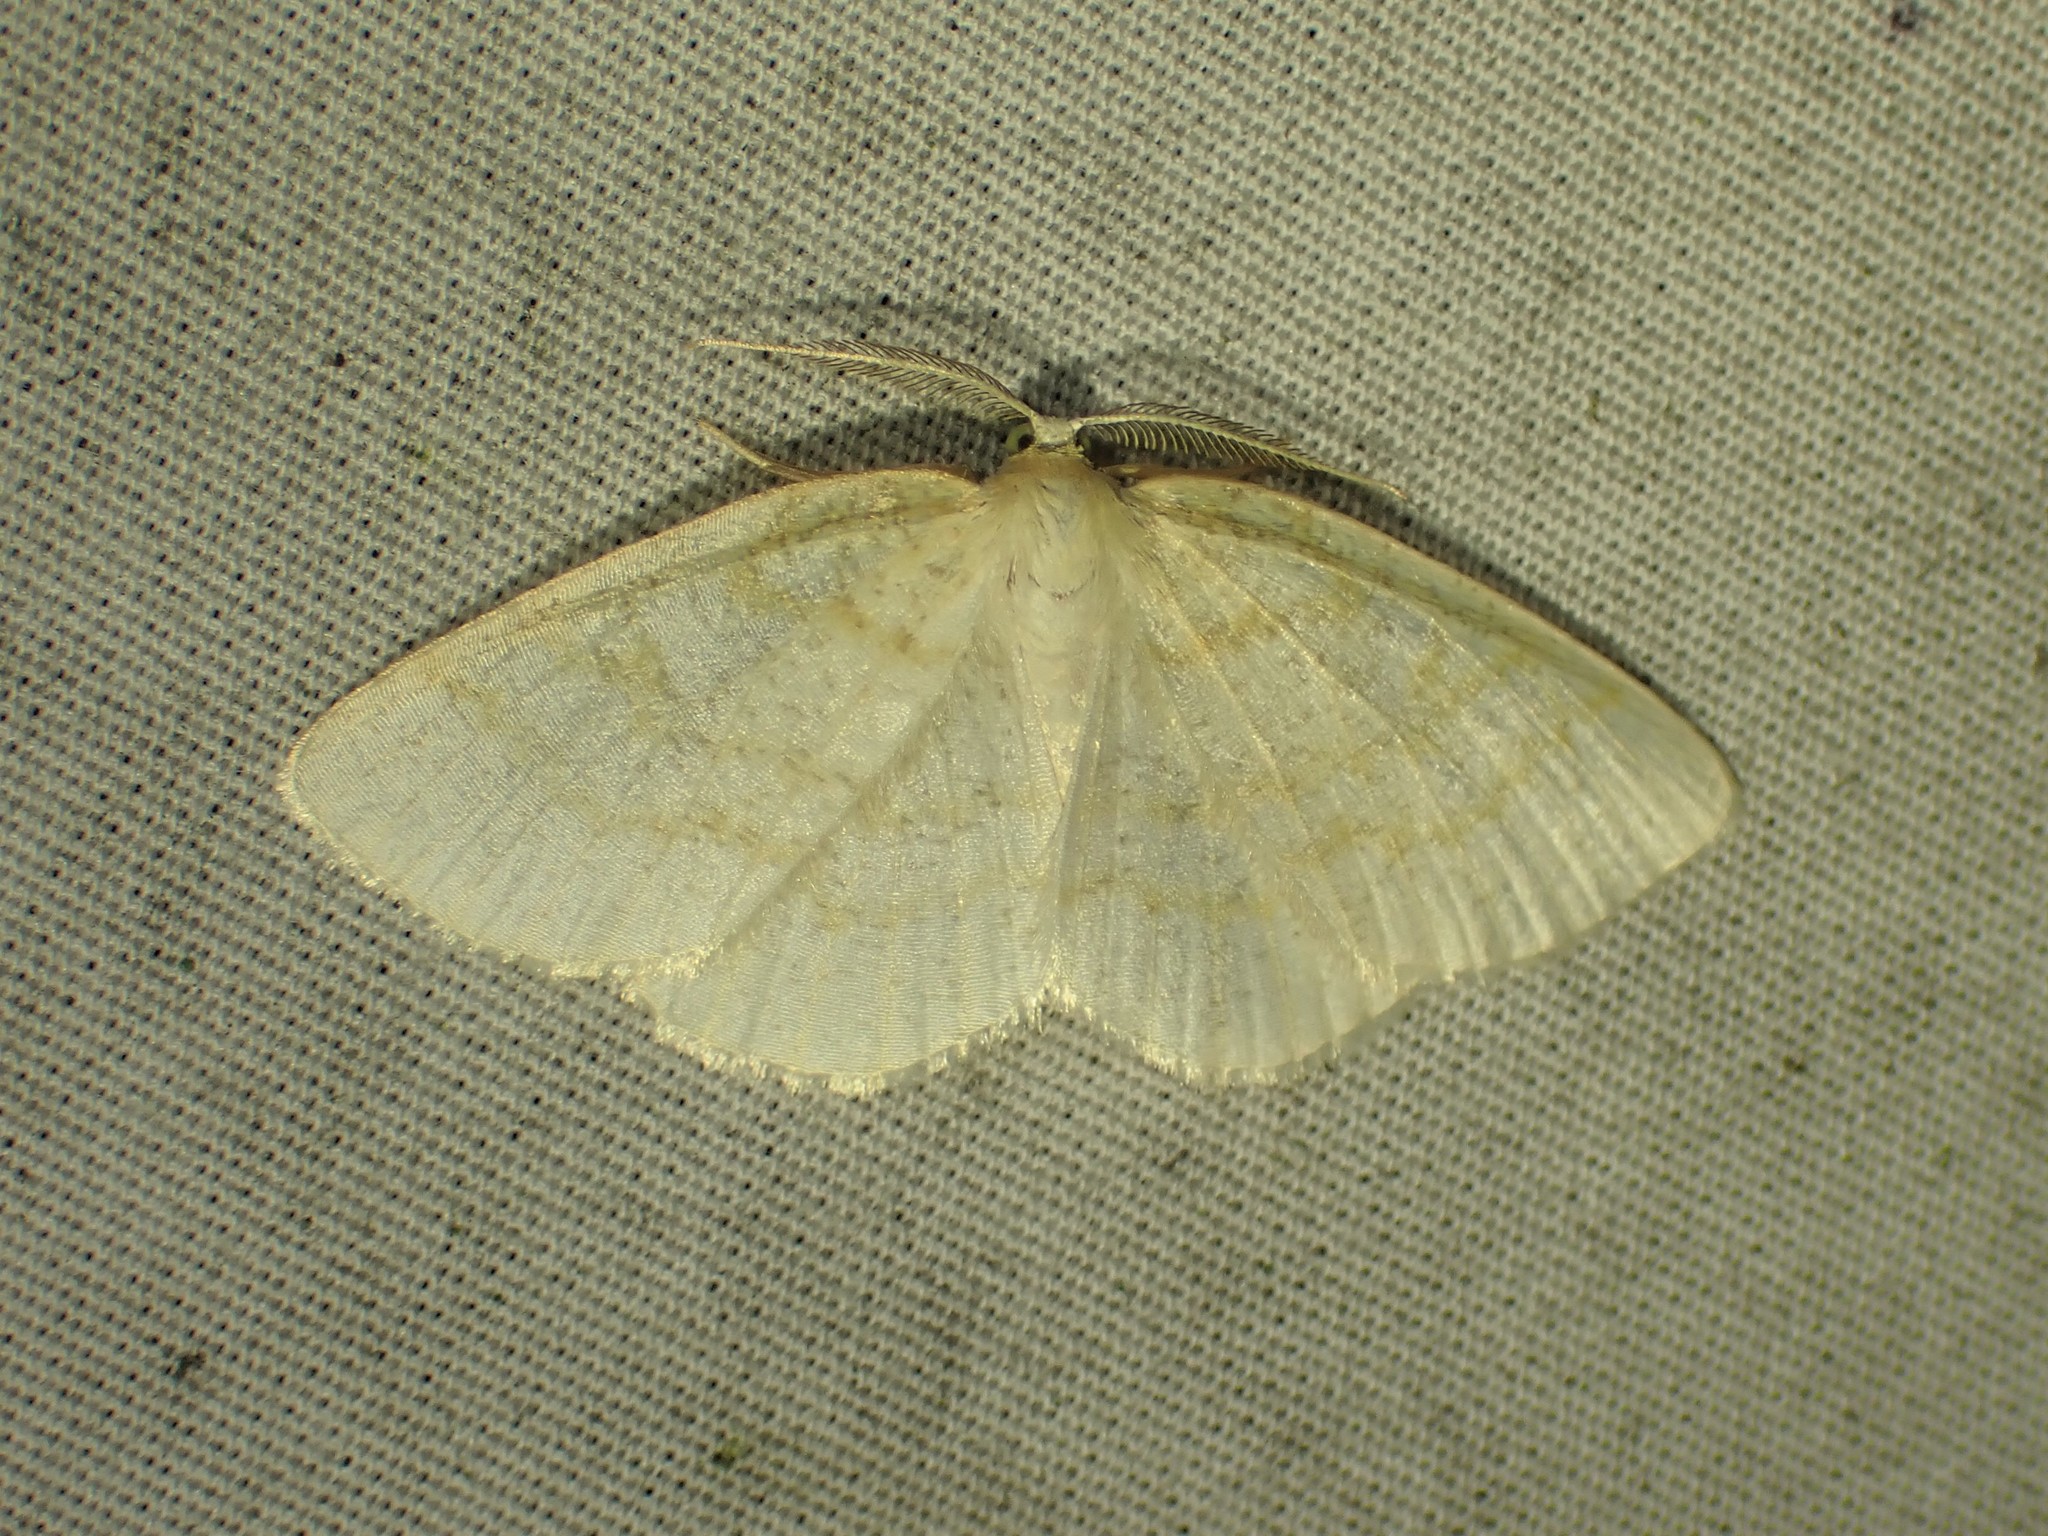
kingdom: Animalia
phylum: Arthropoda
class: Insecta
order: Lepidoptera
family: Geometridae
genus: Cabera
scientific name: Cabera erythemaria
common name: Yellow-dusted cream moth
